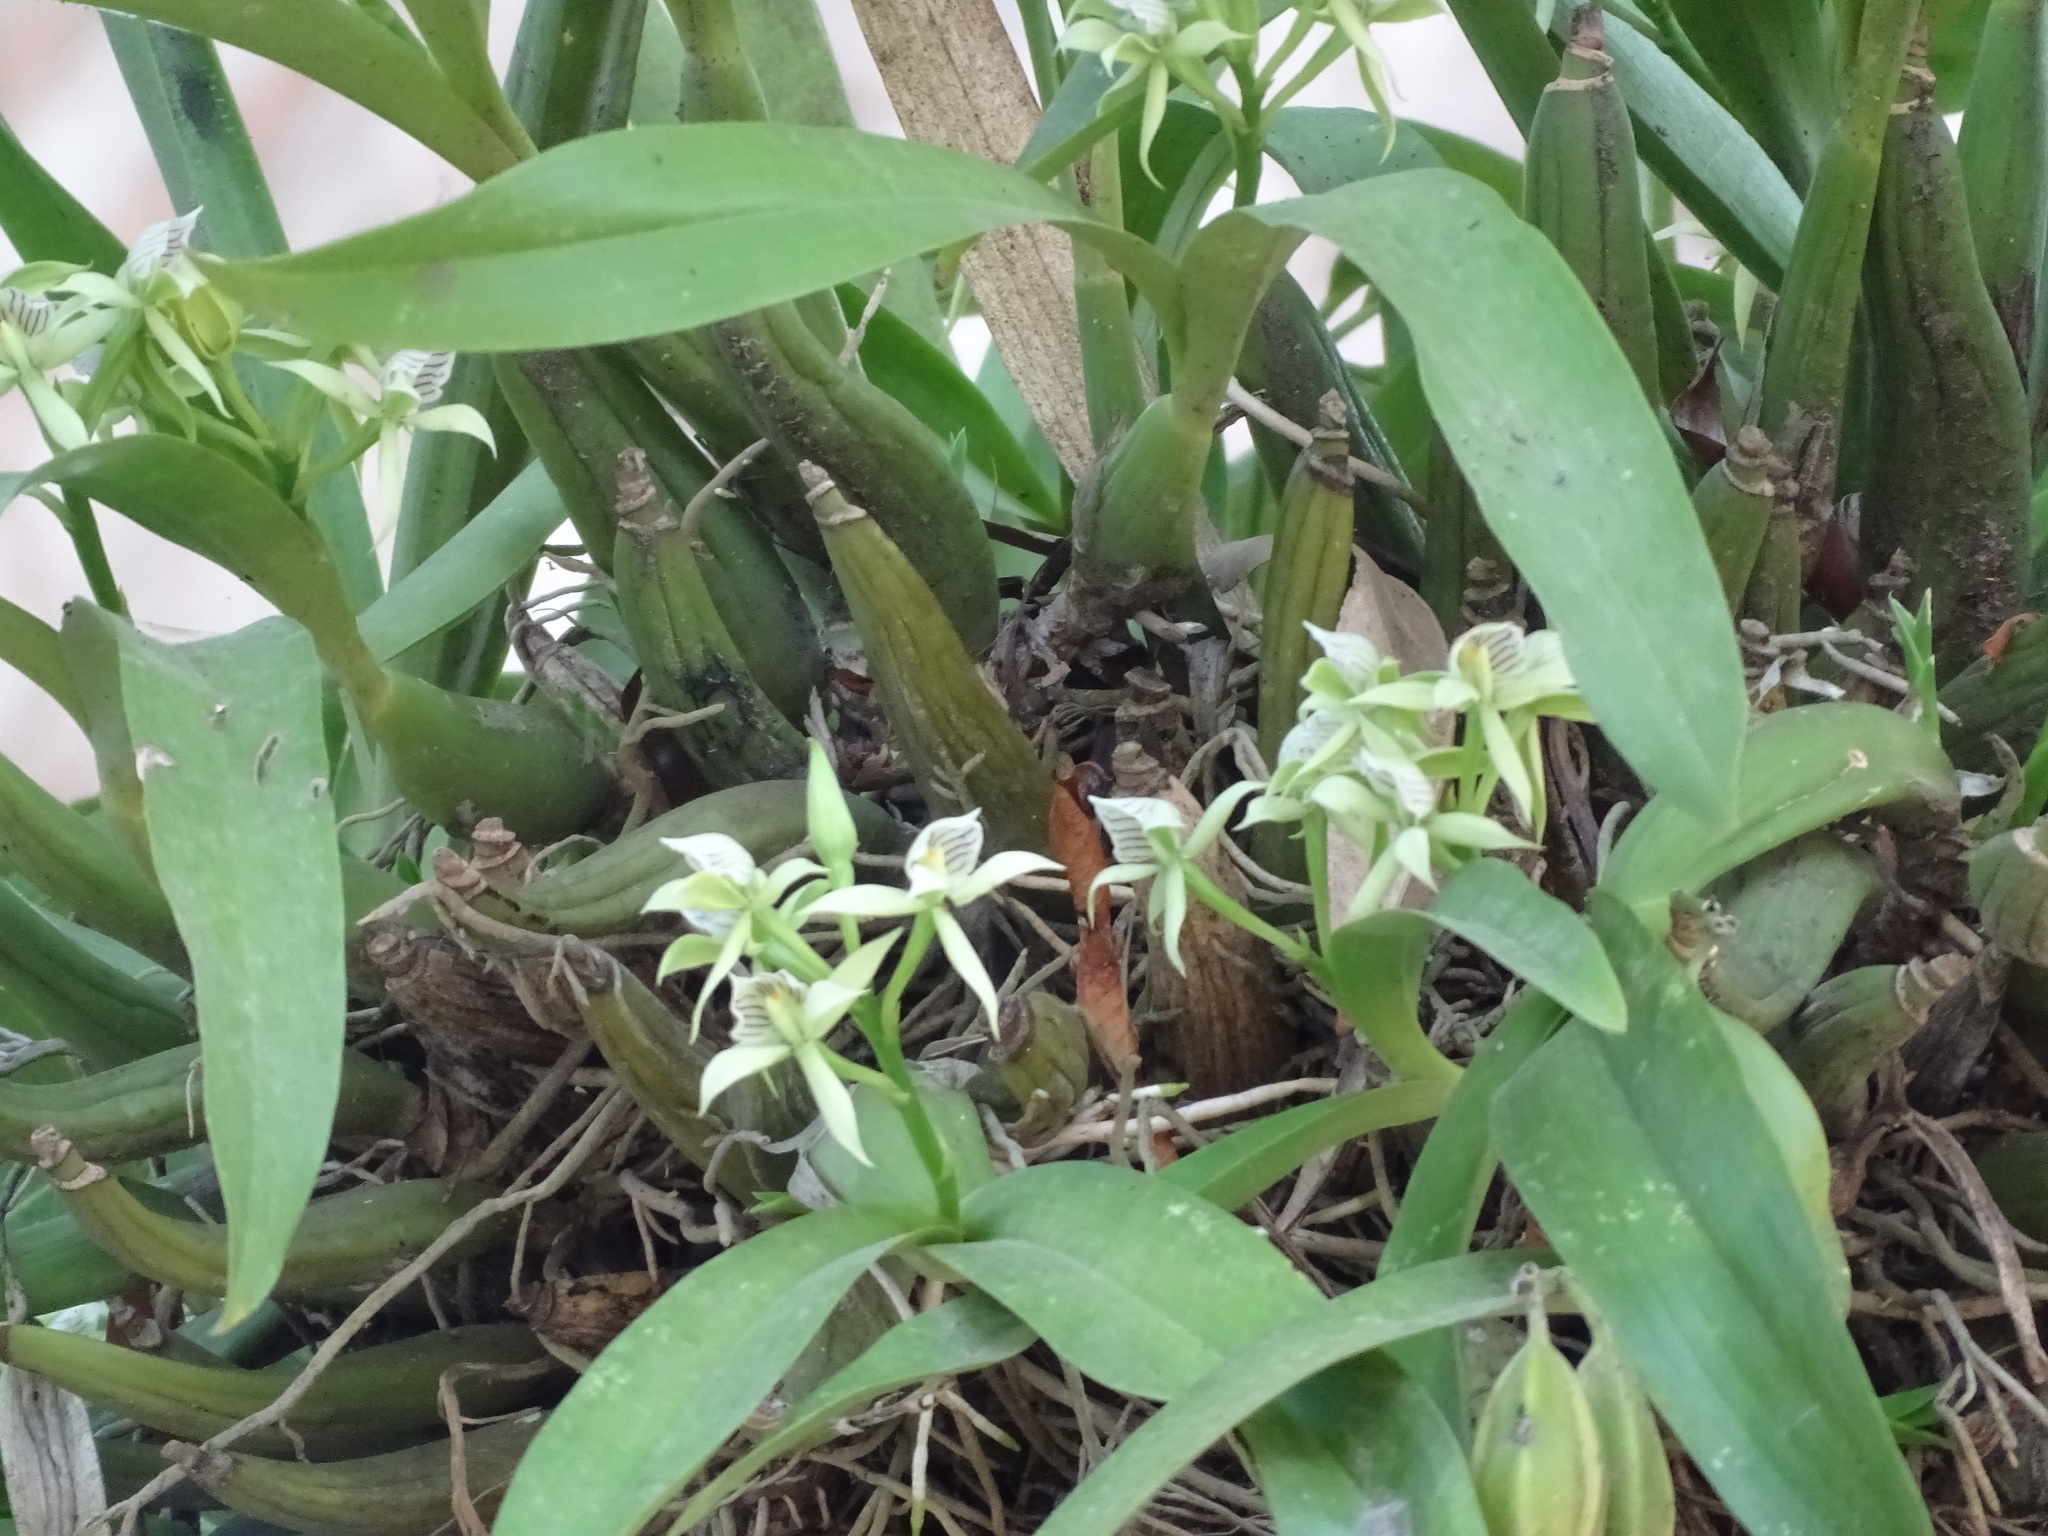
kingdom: Plantae
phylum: Tracheophyta
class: Liliopsida
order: Asparagales
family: Orchidaceae
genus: Prosthechea
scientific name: Prosthechea chacaoensis
